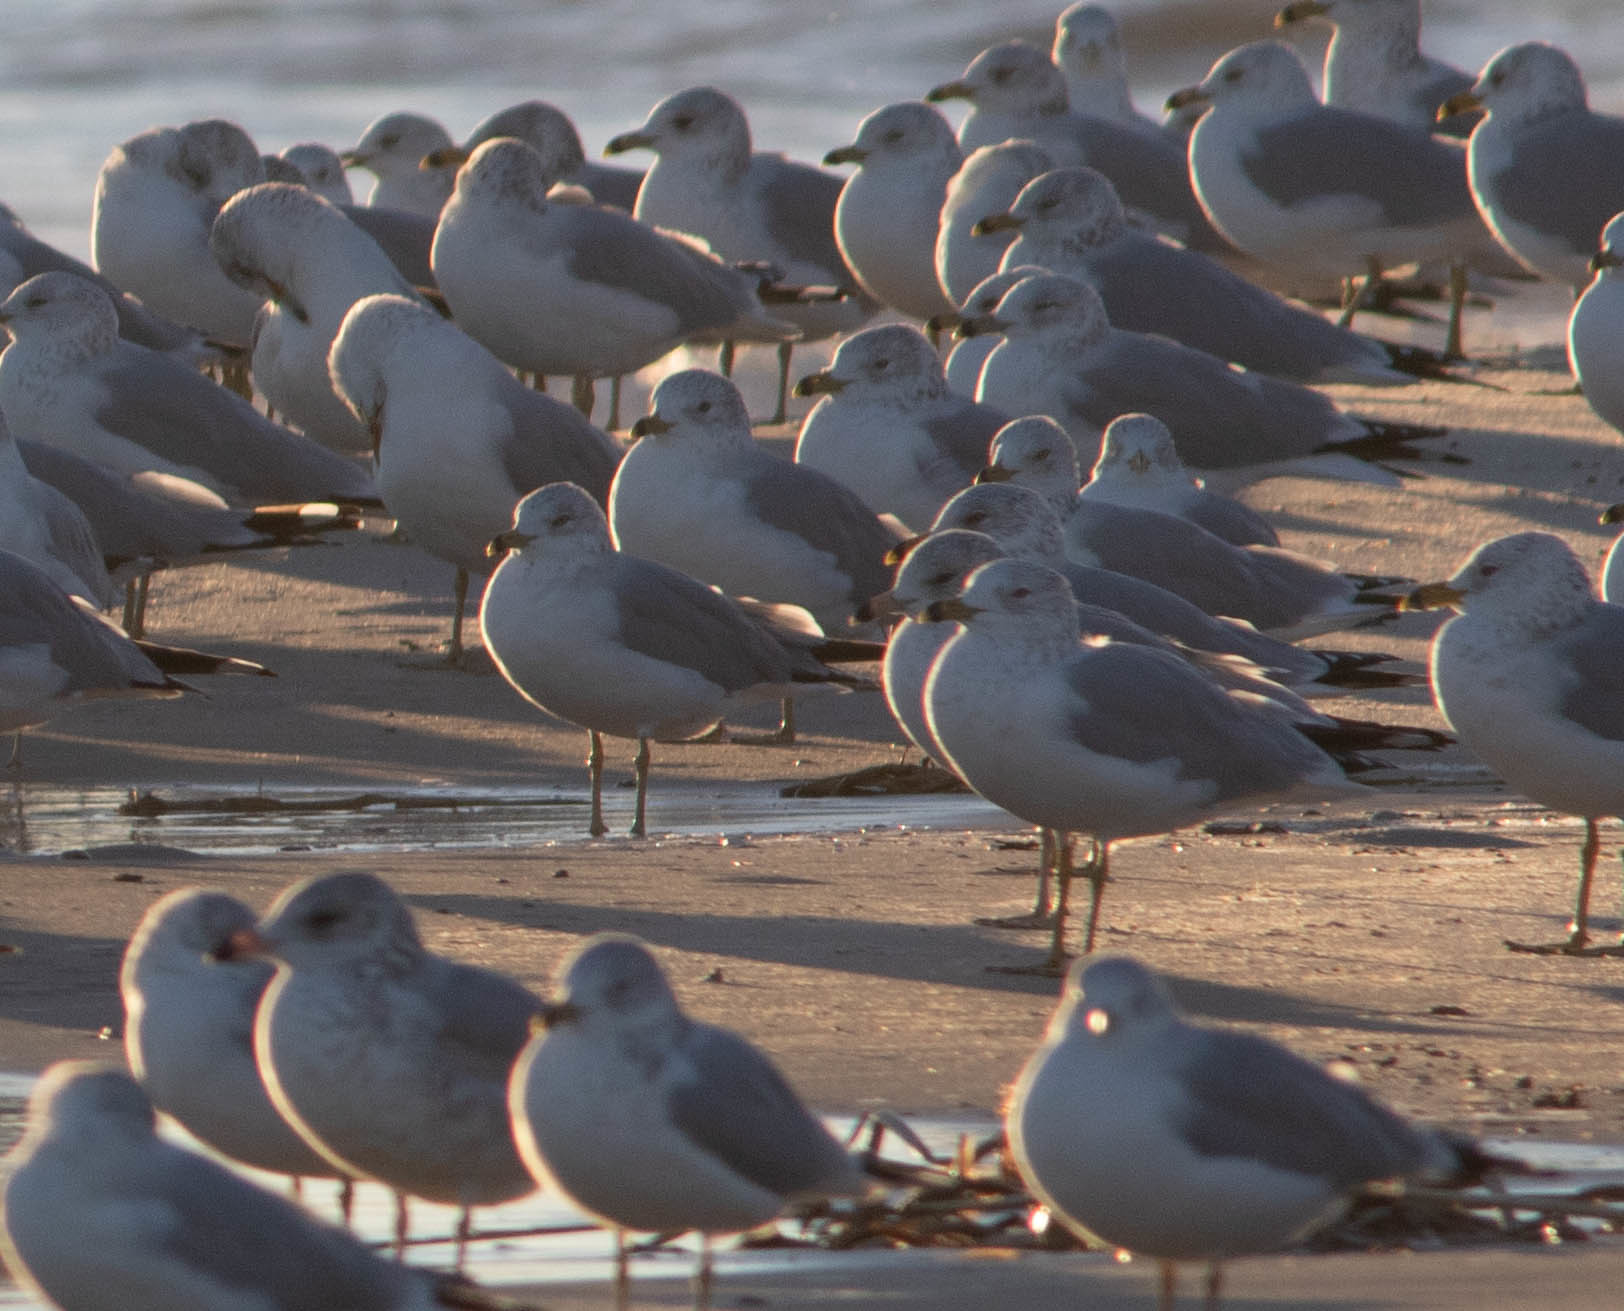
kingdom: Animalia
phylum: Chordata
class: Aves
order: Charadriiformes
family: Laridae
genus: Larus
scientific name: Larus delawarensis
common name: Ring-billed gull
